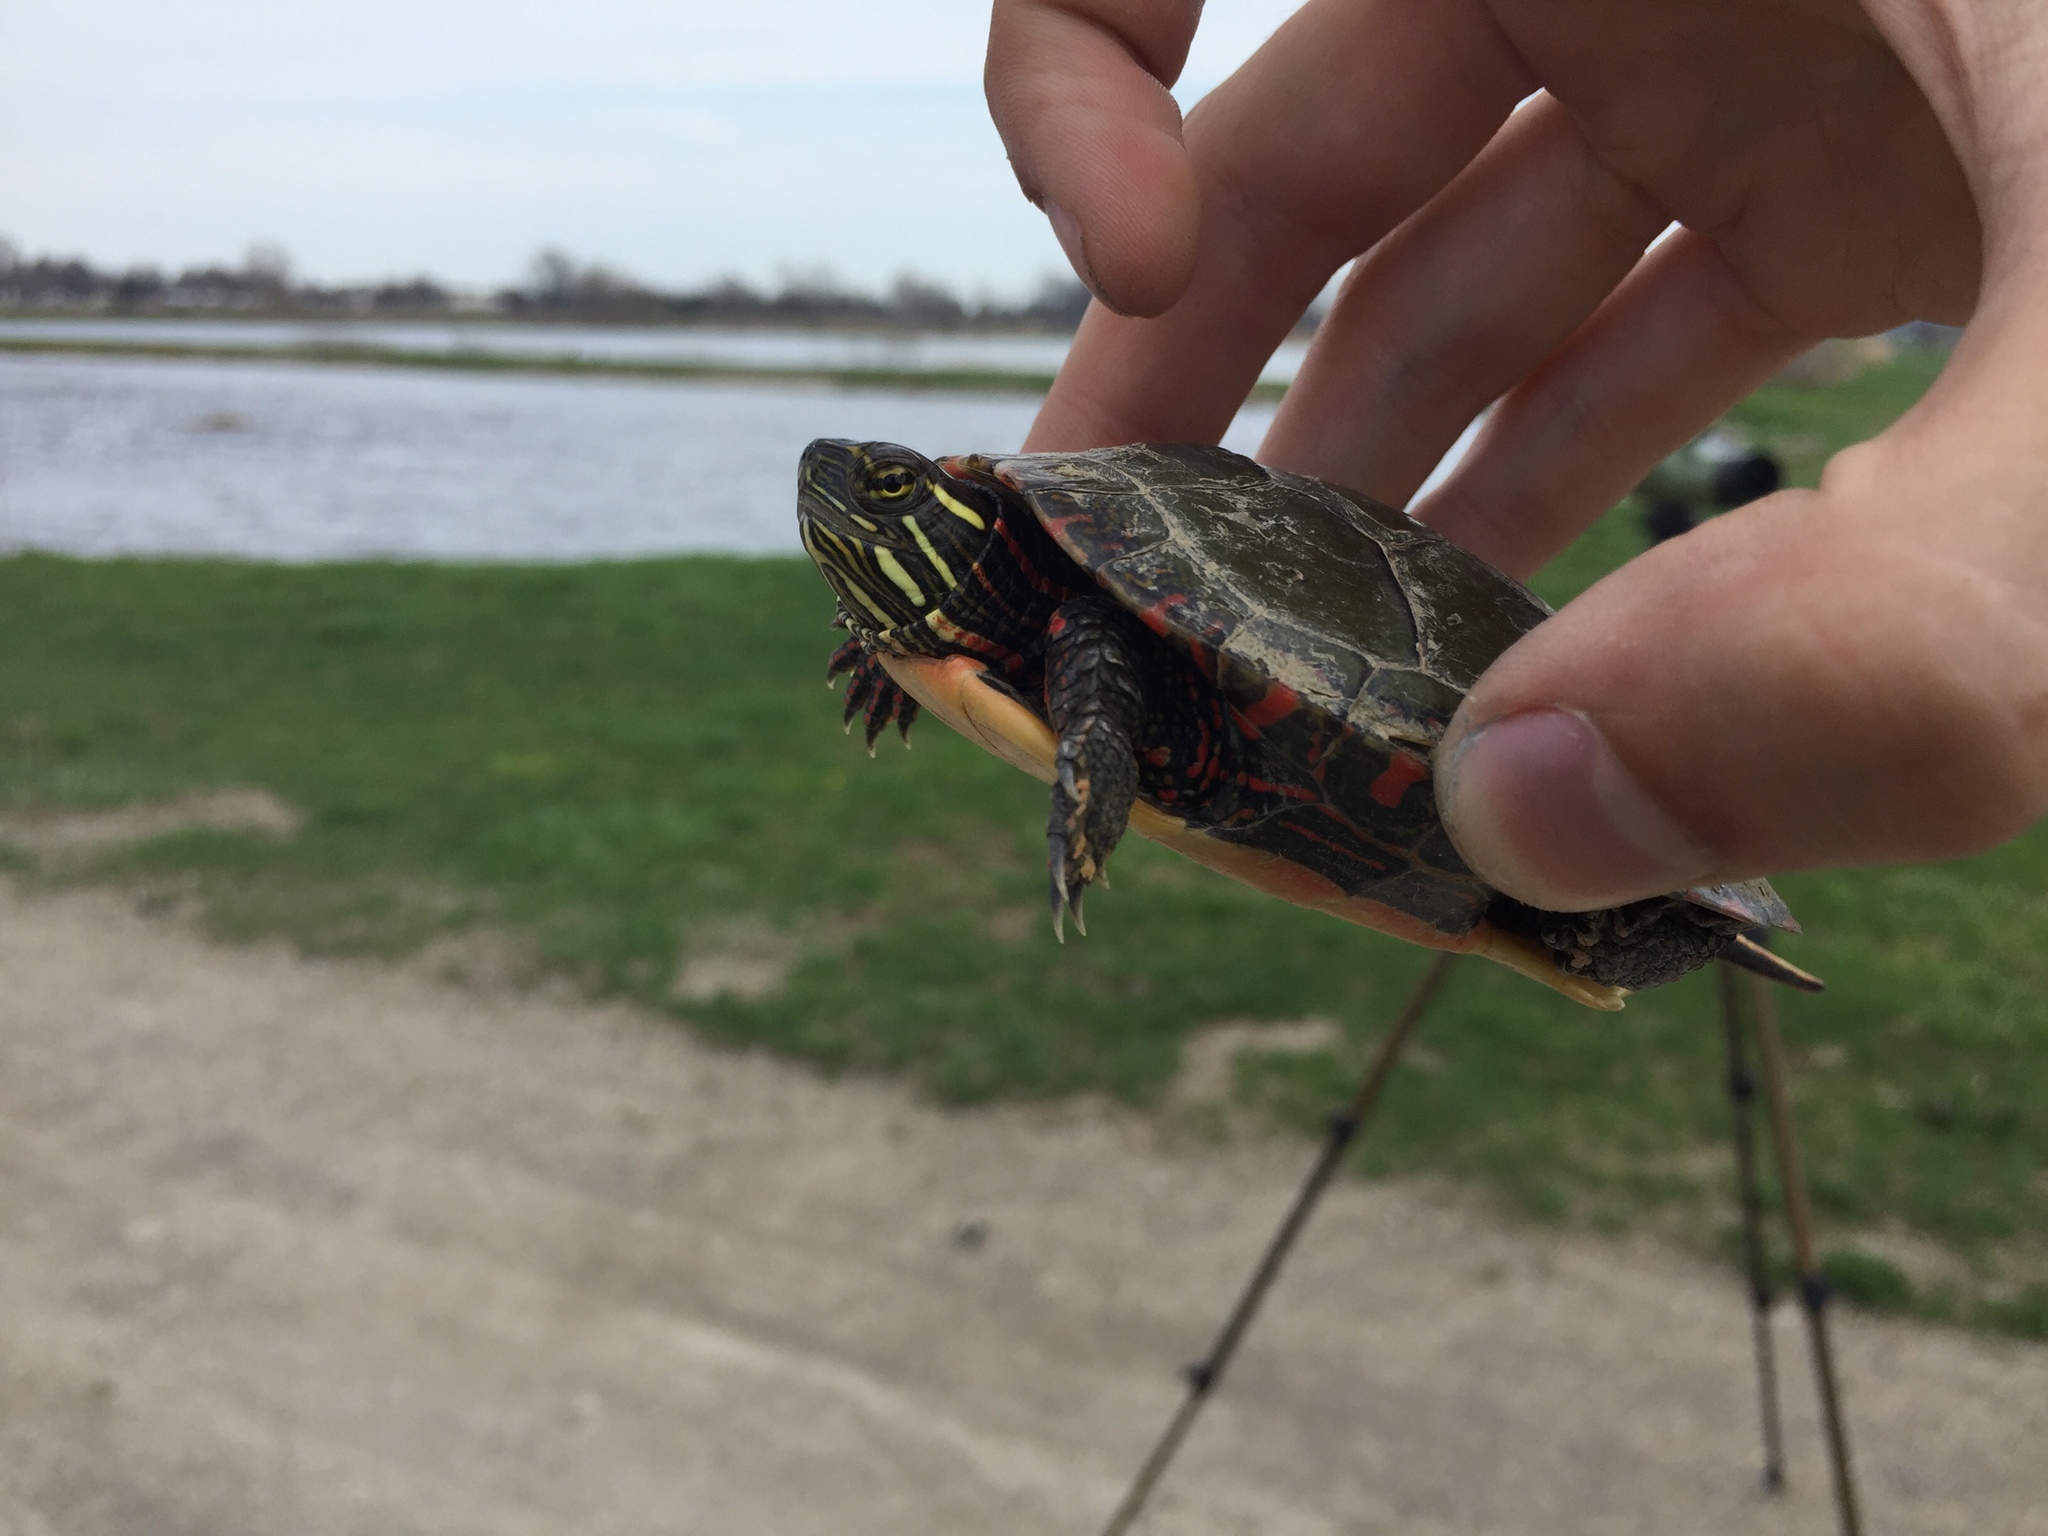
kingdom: Animalia
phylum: Chordata
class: Testudines
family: Emydidae
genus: Chrysemys
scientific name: Chrysemys picta
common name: Painted turtle
